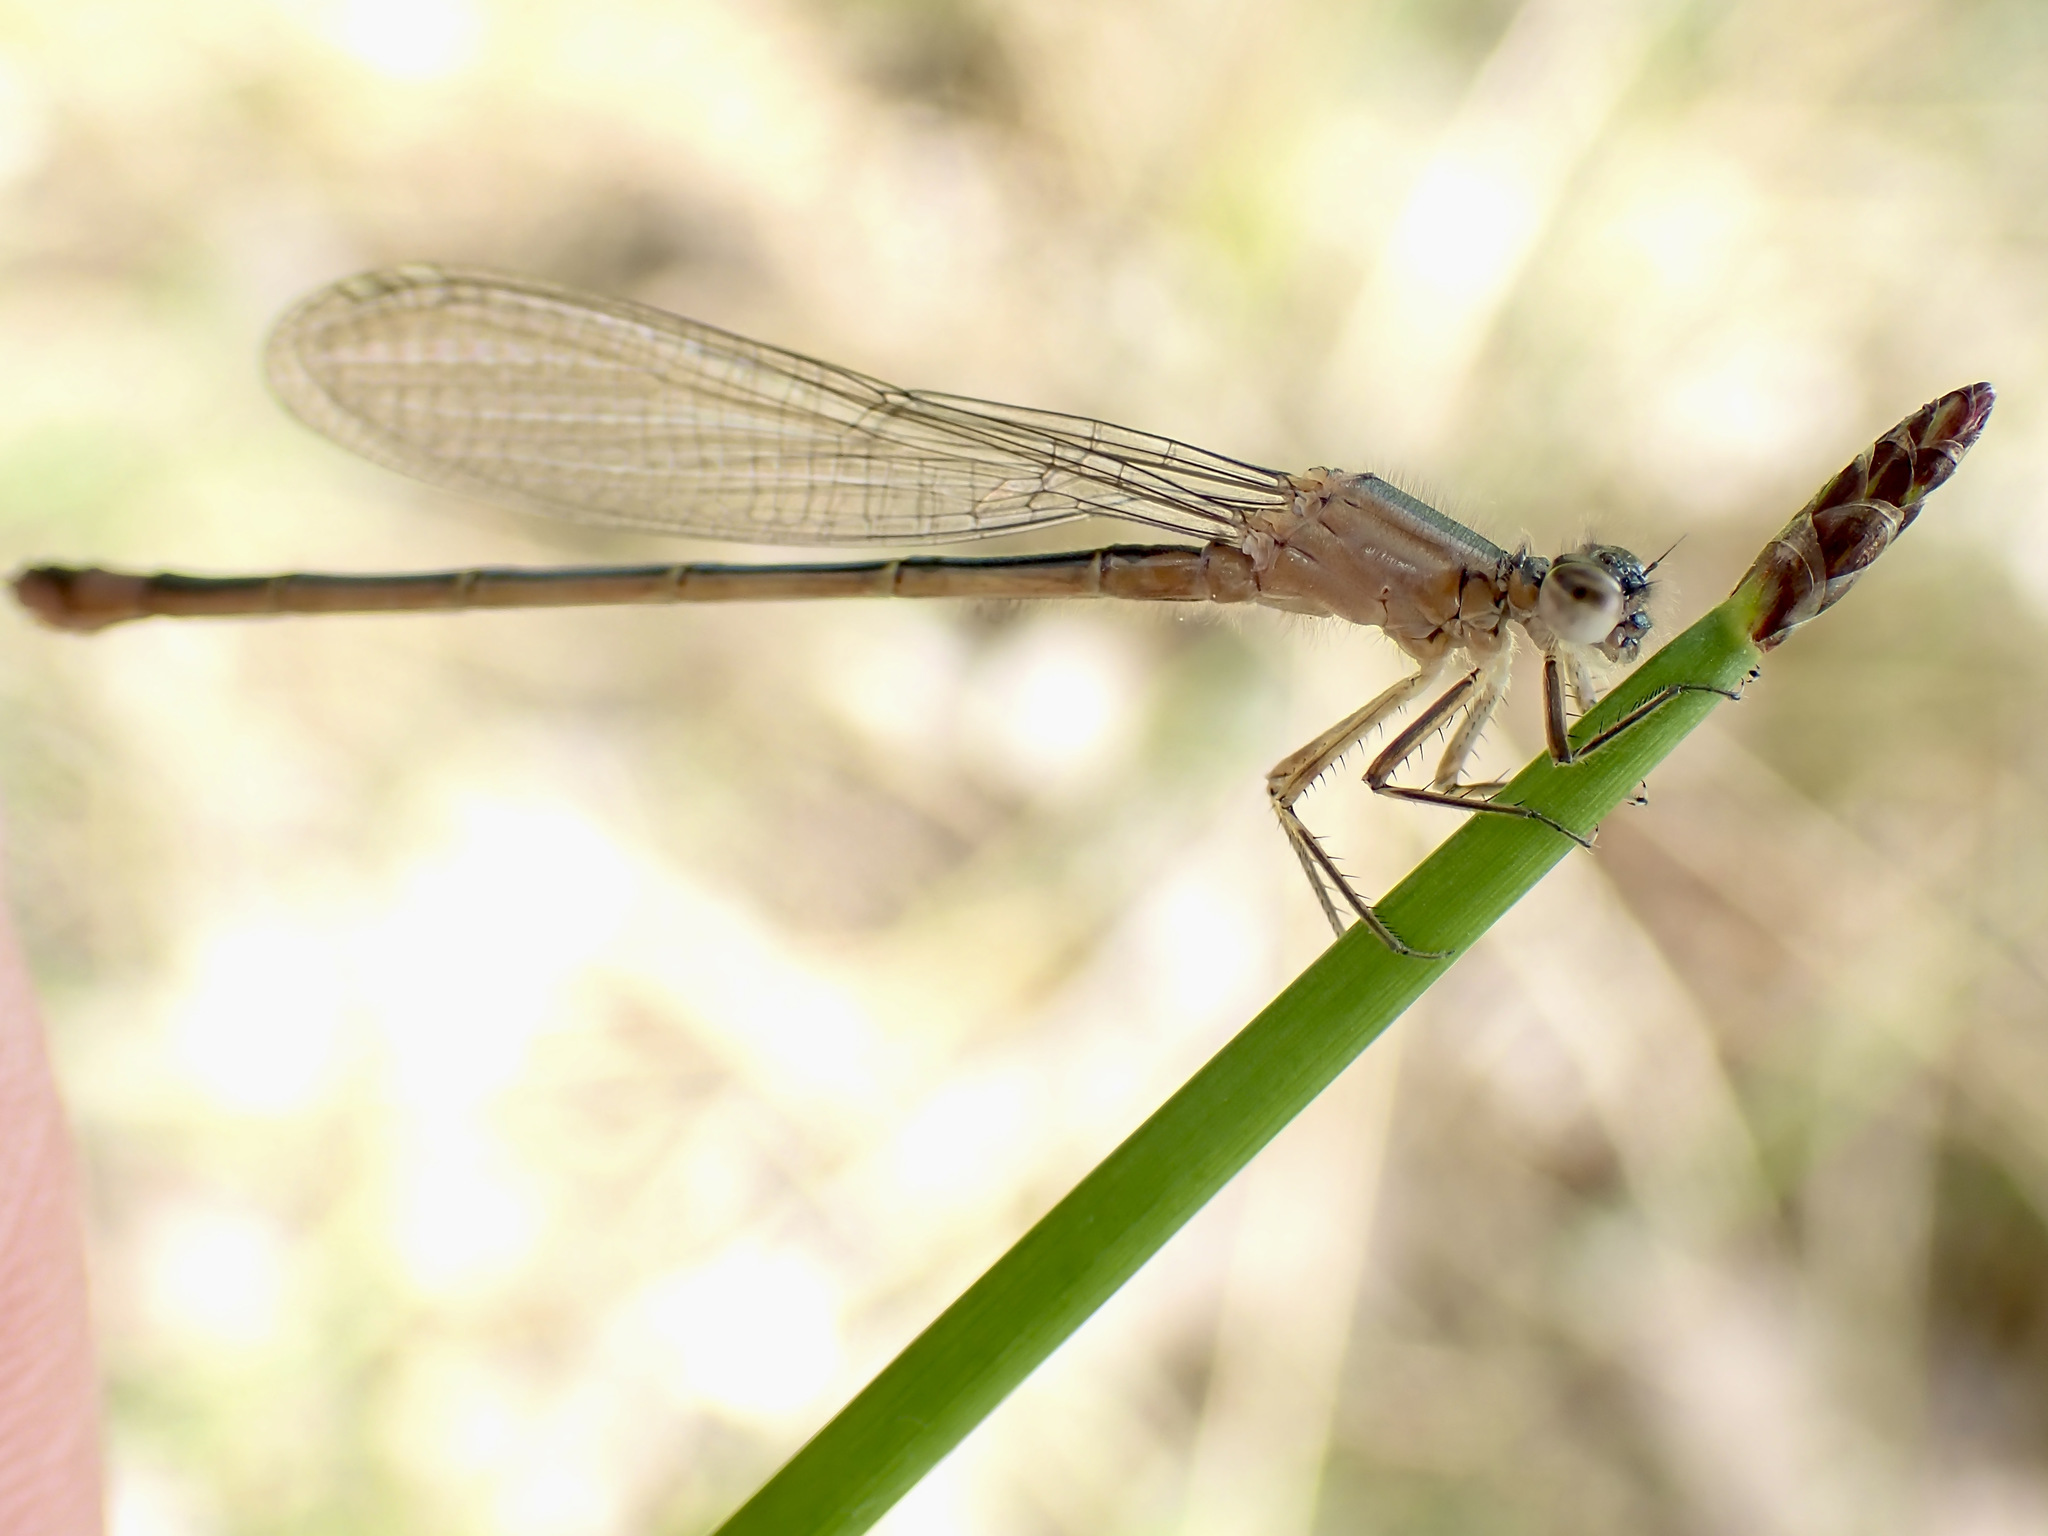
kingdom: Animalia
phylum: Arthropoda
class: Insecta
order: Odonata
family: Coenagrionidae
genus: Ischnura
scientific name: Ischnura elegans
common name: Blue-tailed damselfly
